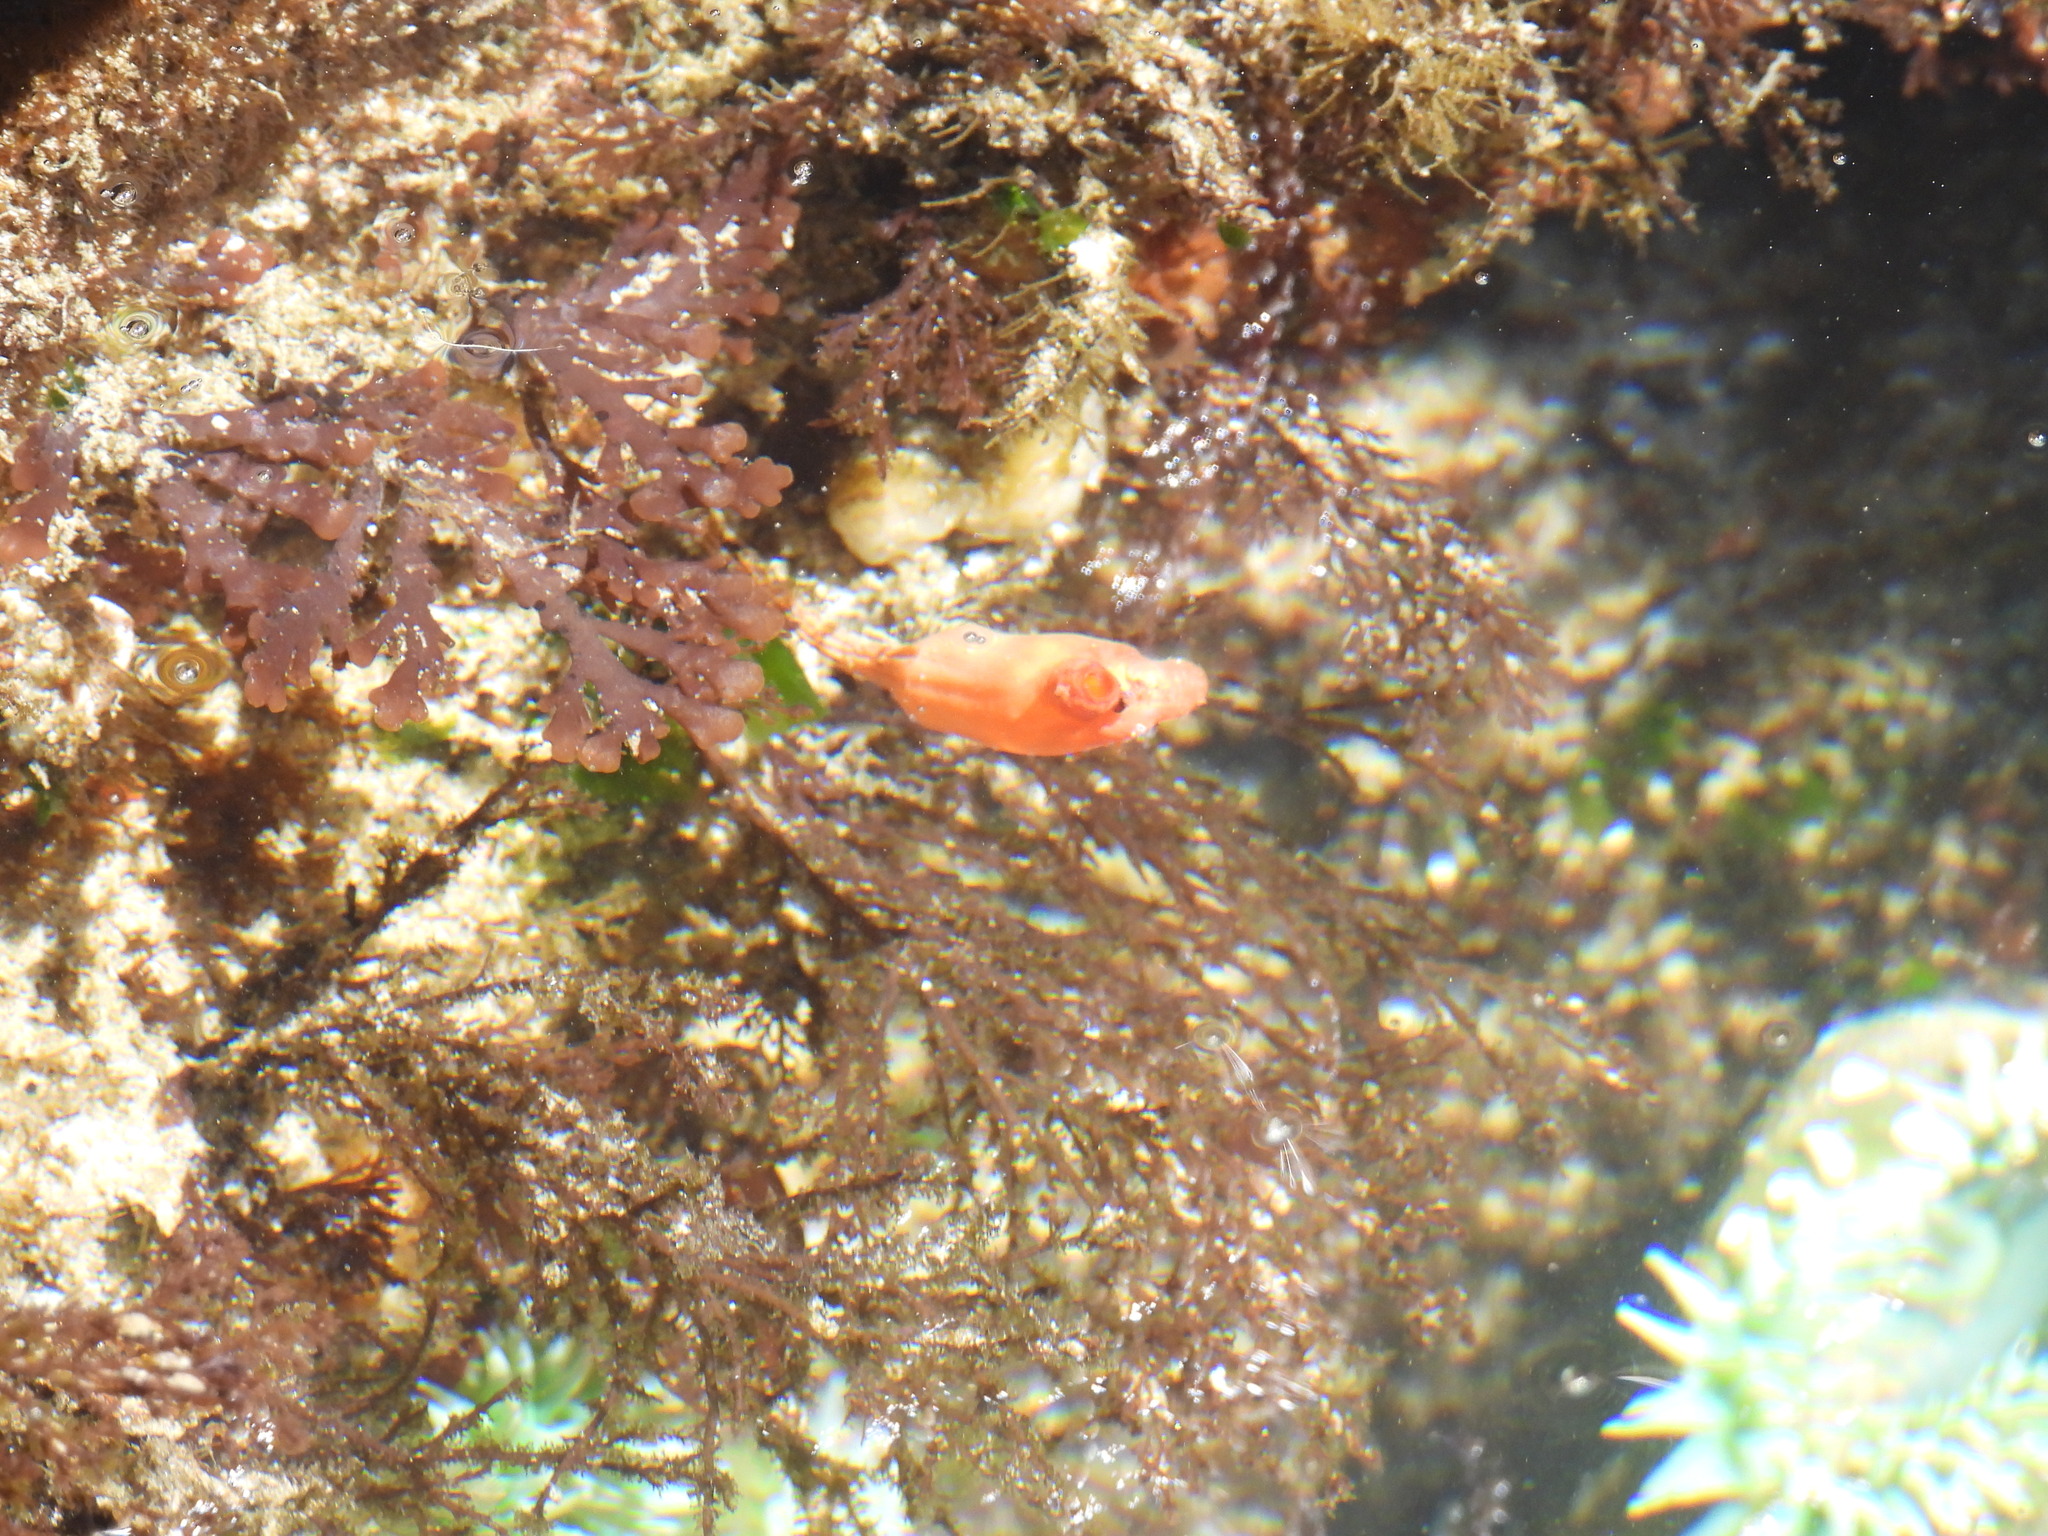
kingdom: Plantae
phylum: Rhodophyta
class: Florideophyceae
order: Ceramiales
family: Rhodomelaceae
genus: Osmundea
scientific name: Osmundea spectabilis
